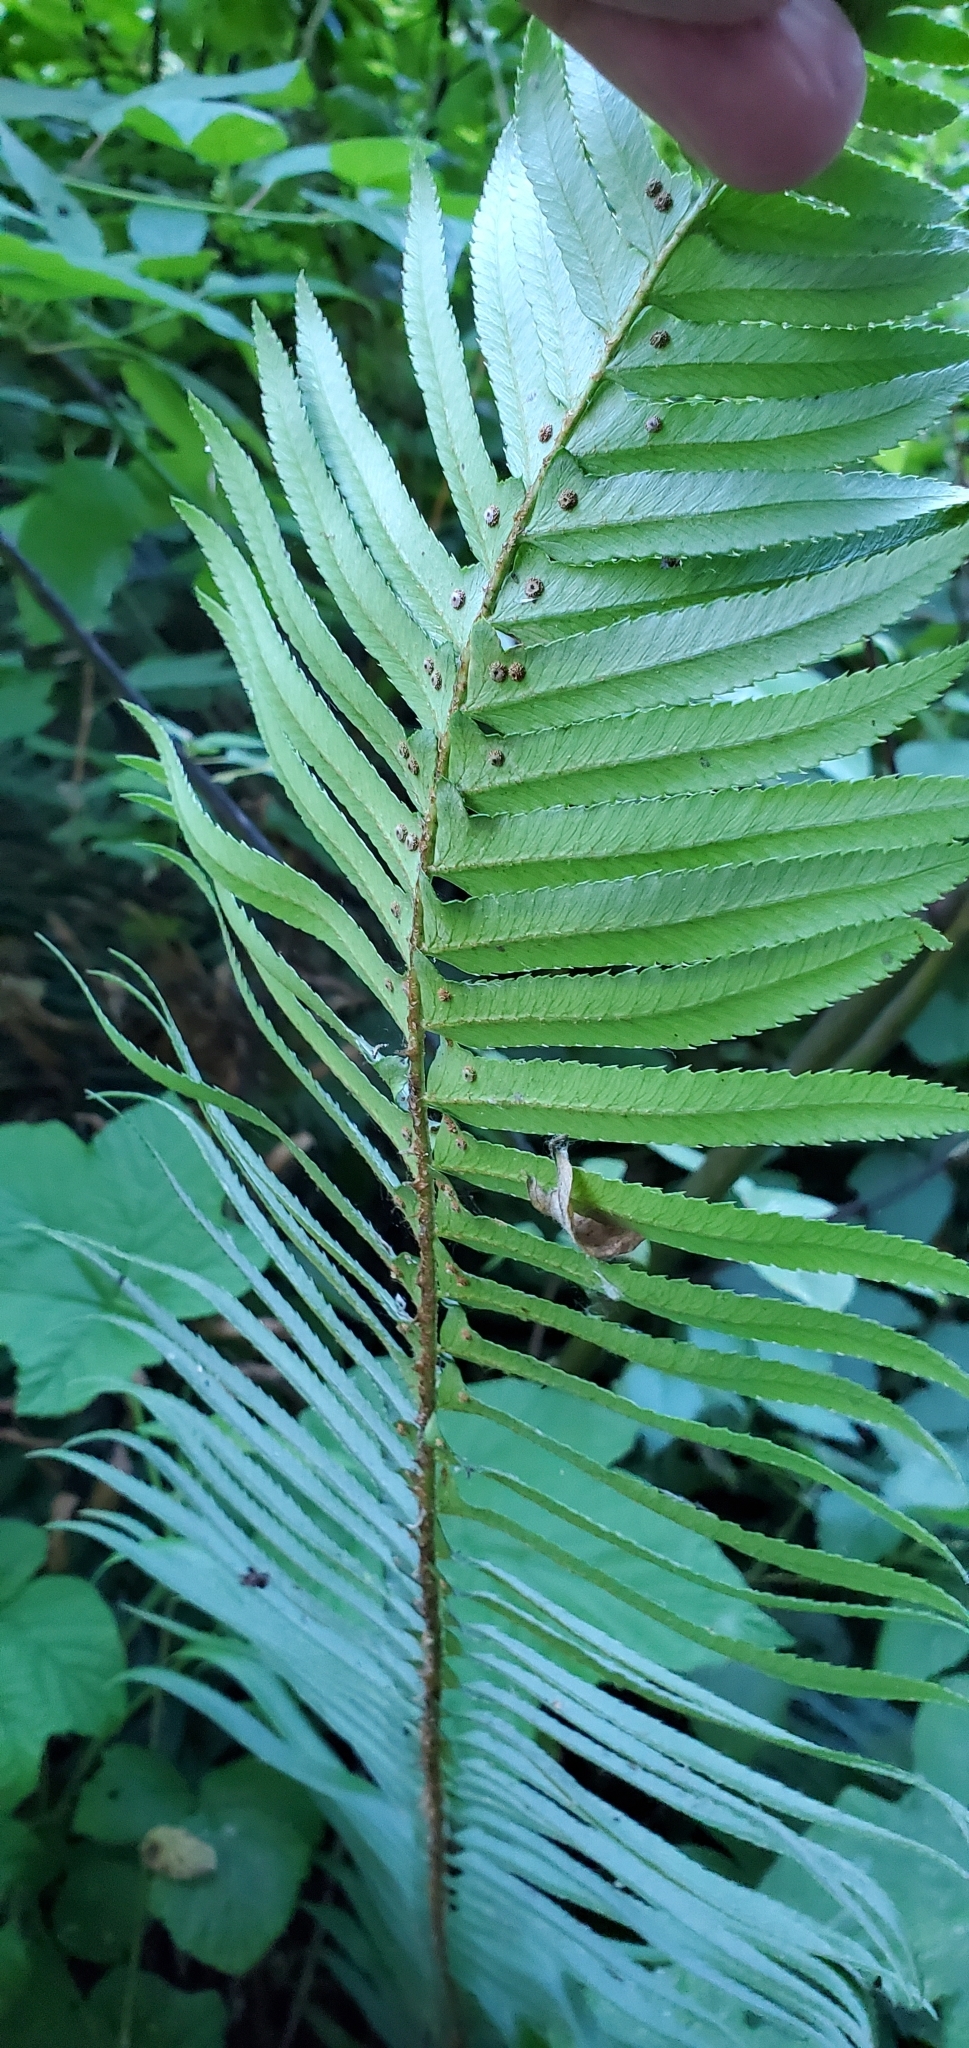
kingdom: Plantae
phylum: Tracheophyta
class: Polypodiopsida
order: Polypodiales
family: Dryopteridaceae
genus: Polystichum
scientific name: Polystichum munitum
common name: Western sword-fern
